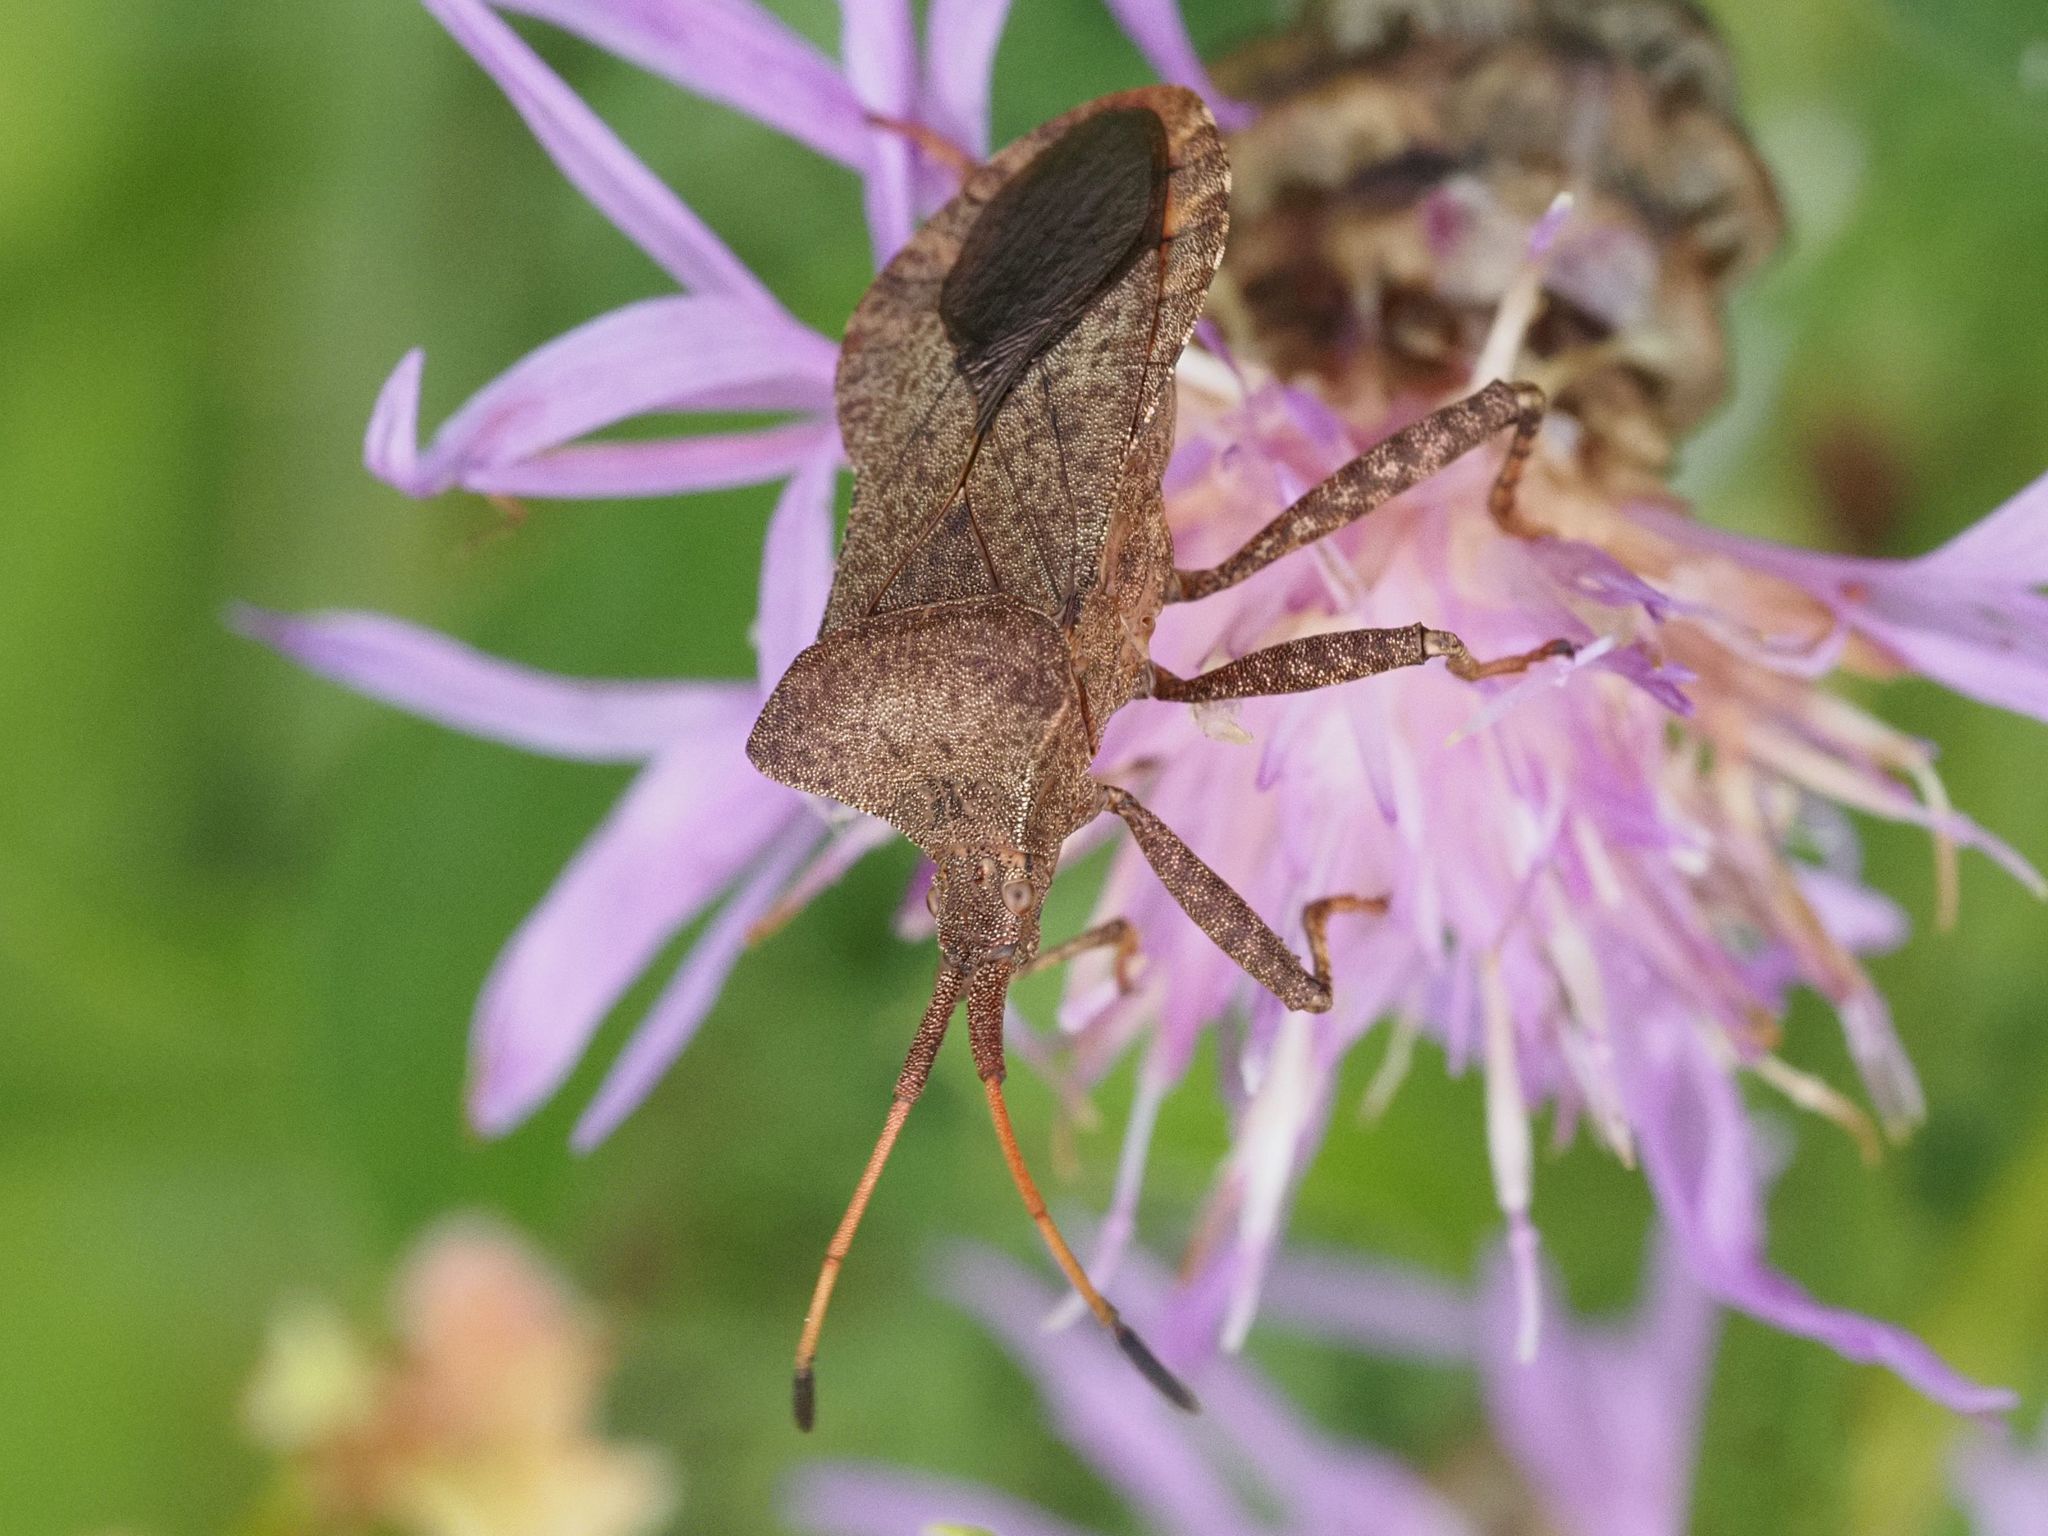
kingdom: Animalia
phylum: Arthropoda
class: Insecta
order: Hemiptera
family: Coreidae
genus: Coreus
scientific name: Coreus marginatus
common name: Dock bug
